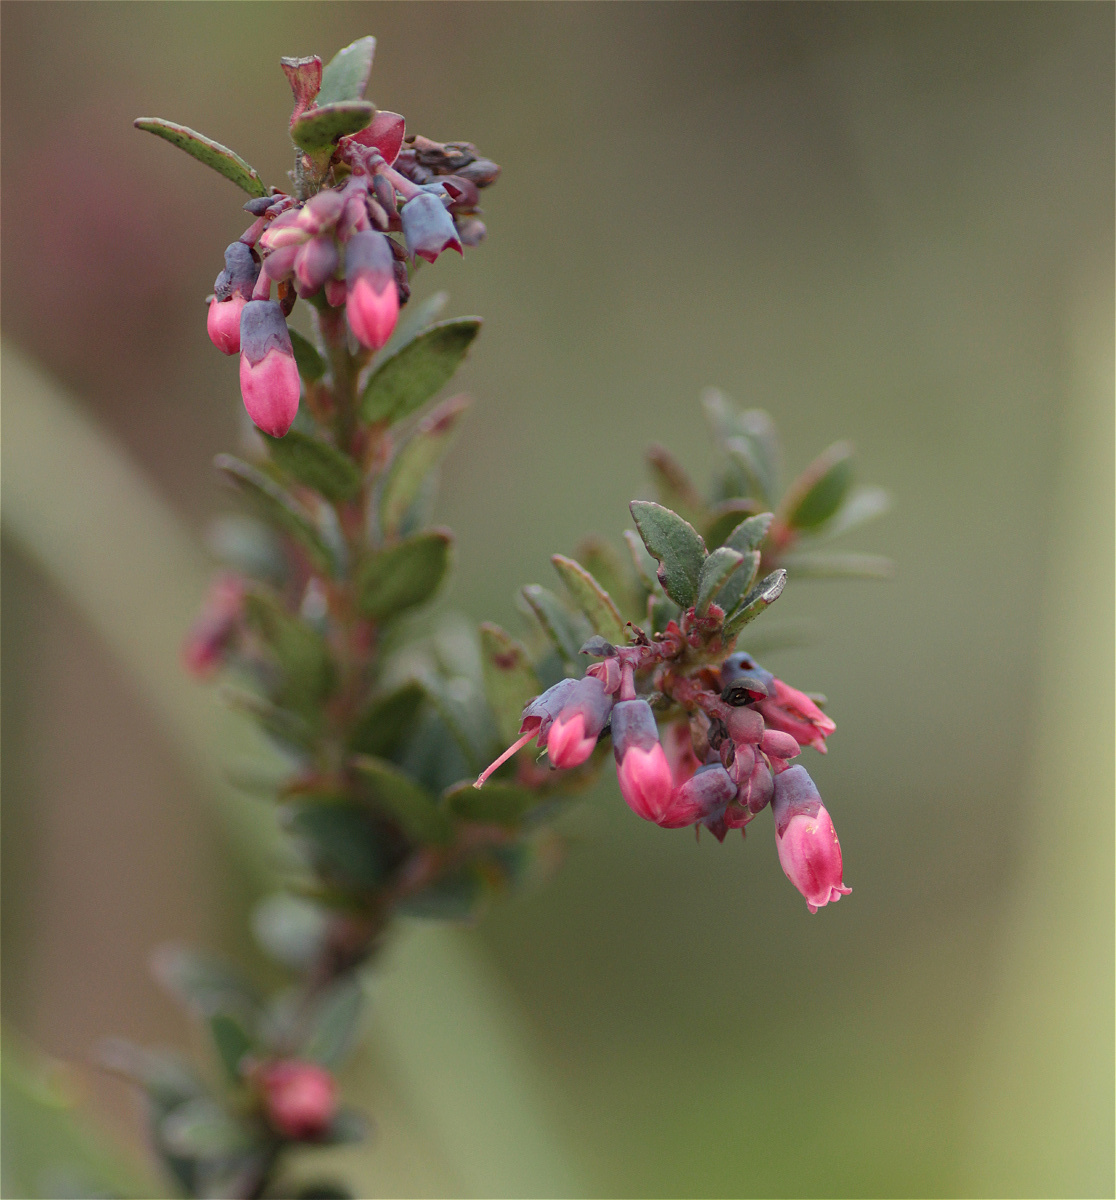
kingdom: Plantae
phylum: Tracheophyta
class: Magnoliopsida
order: Ericales
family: Ericaceae
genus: Vaccinium
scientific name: Vaccinium floribundum
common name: Colombian blueberry
